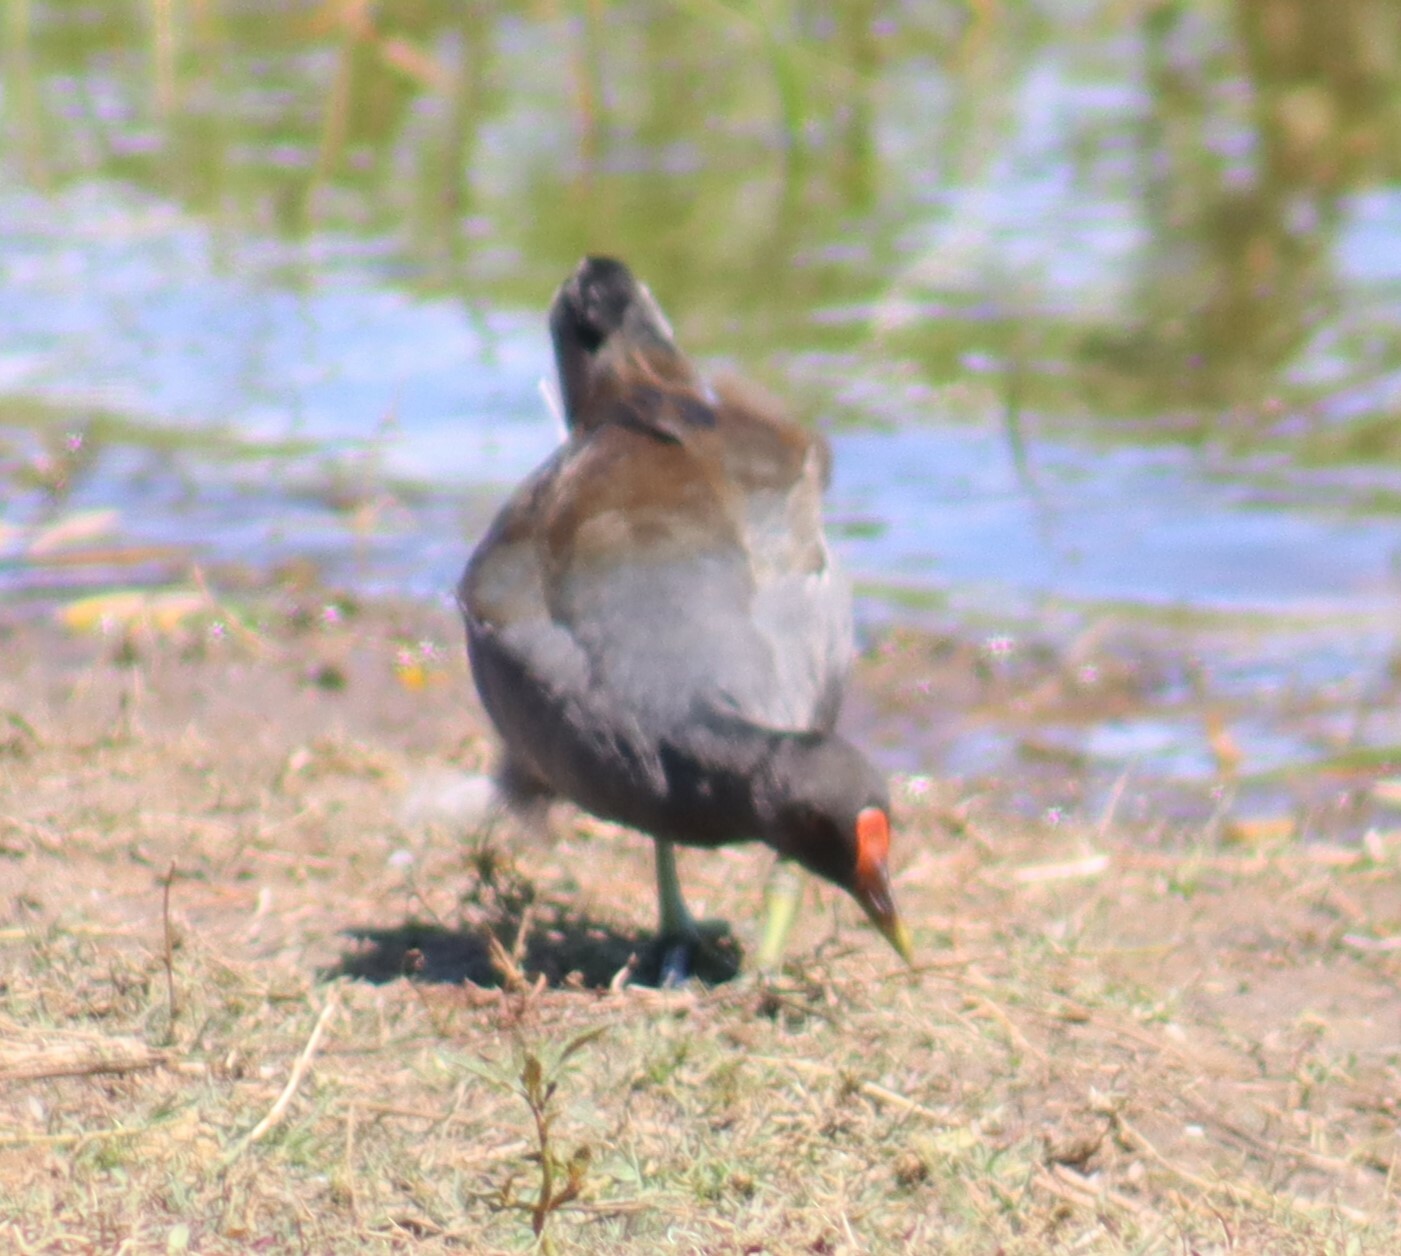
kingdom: Animalia
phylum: Chordata
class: Aves
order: Gruiformes
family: Rallidae
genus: Gallinula
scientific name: Gallinula chloropus
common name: Common moorhen
